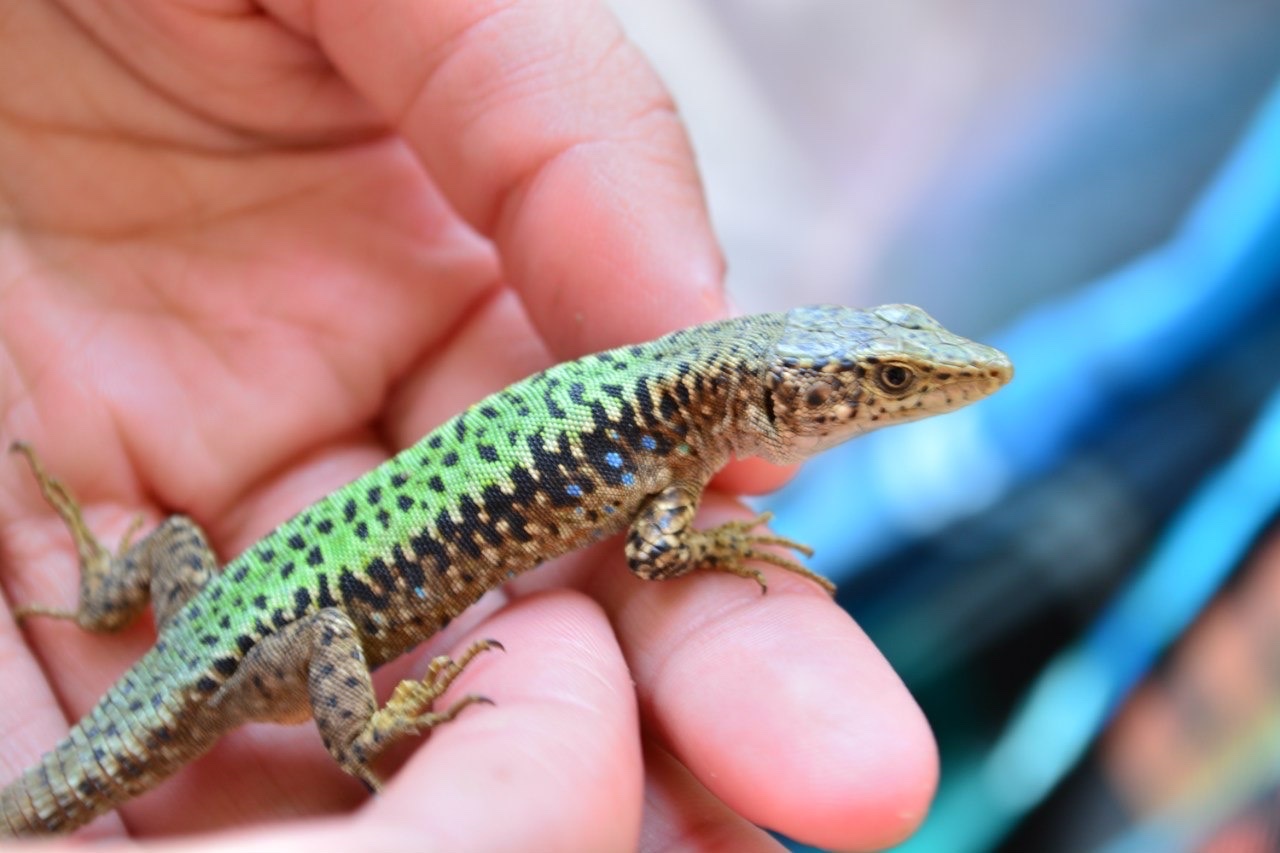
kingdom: Animalia
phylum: Chordata
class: Squamata
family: Lacertidae
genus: Darevskia
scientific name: Darevskia brauneri
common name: Brauner's rock lizard
